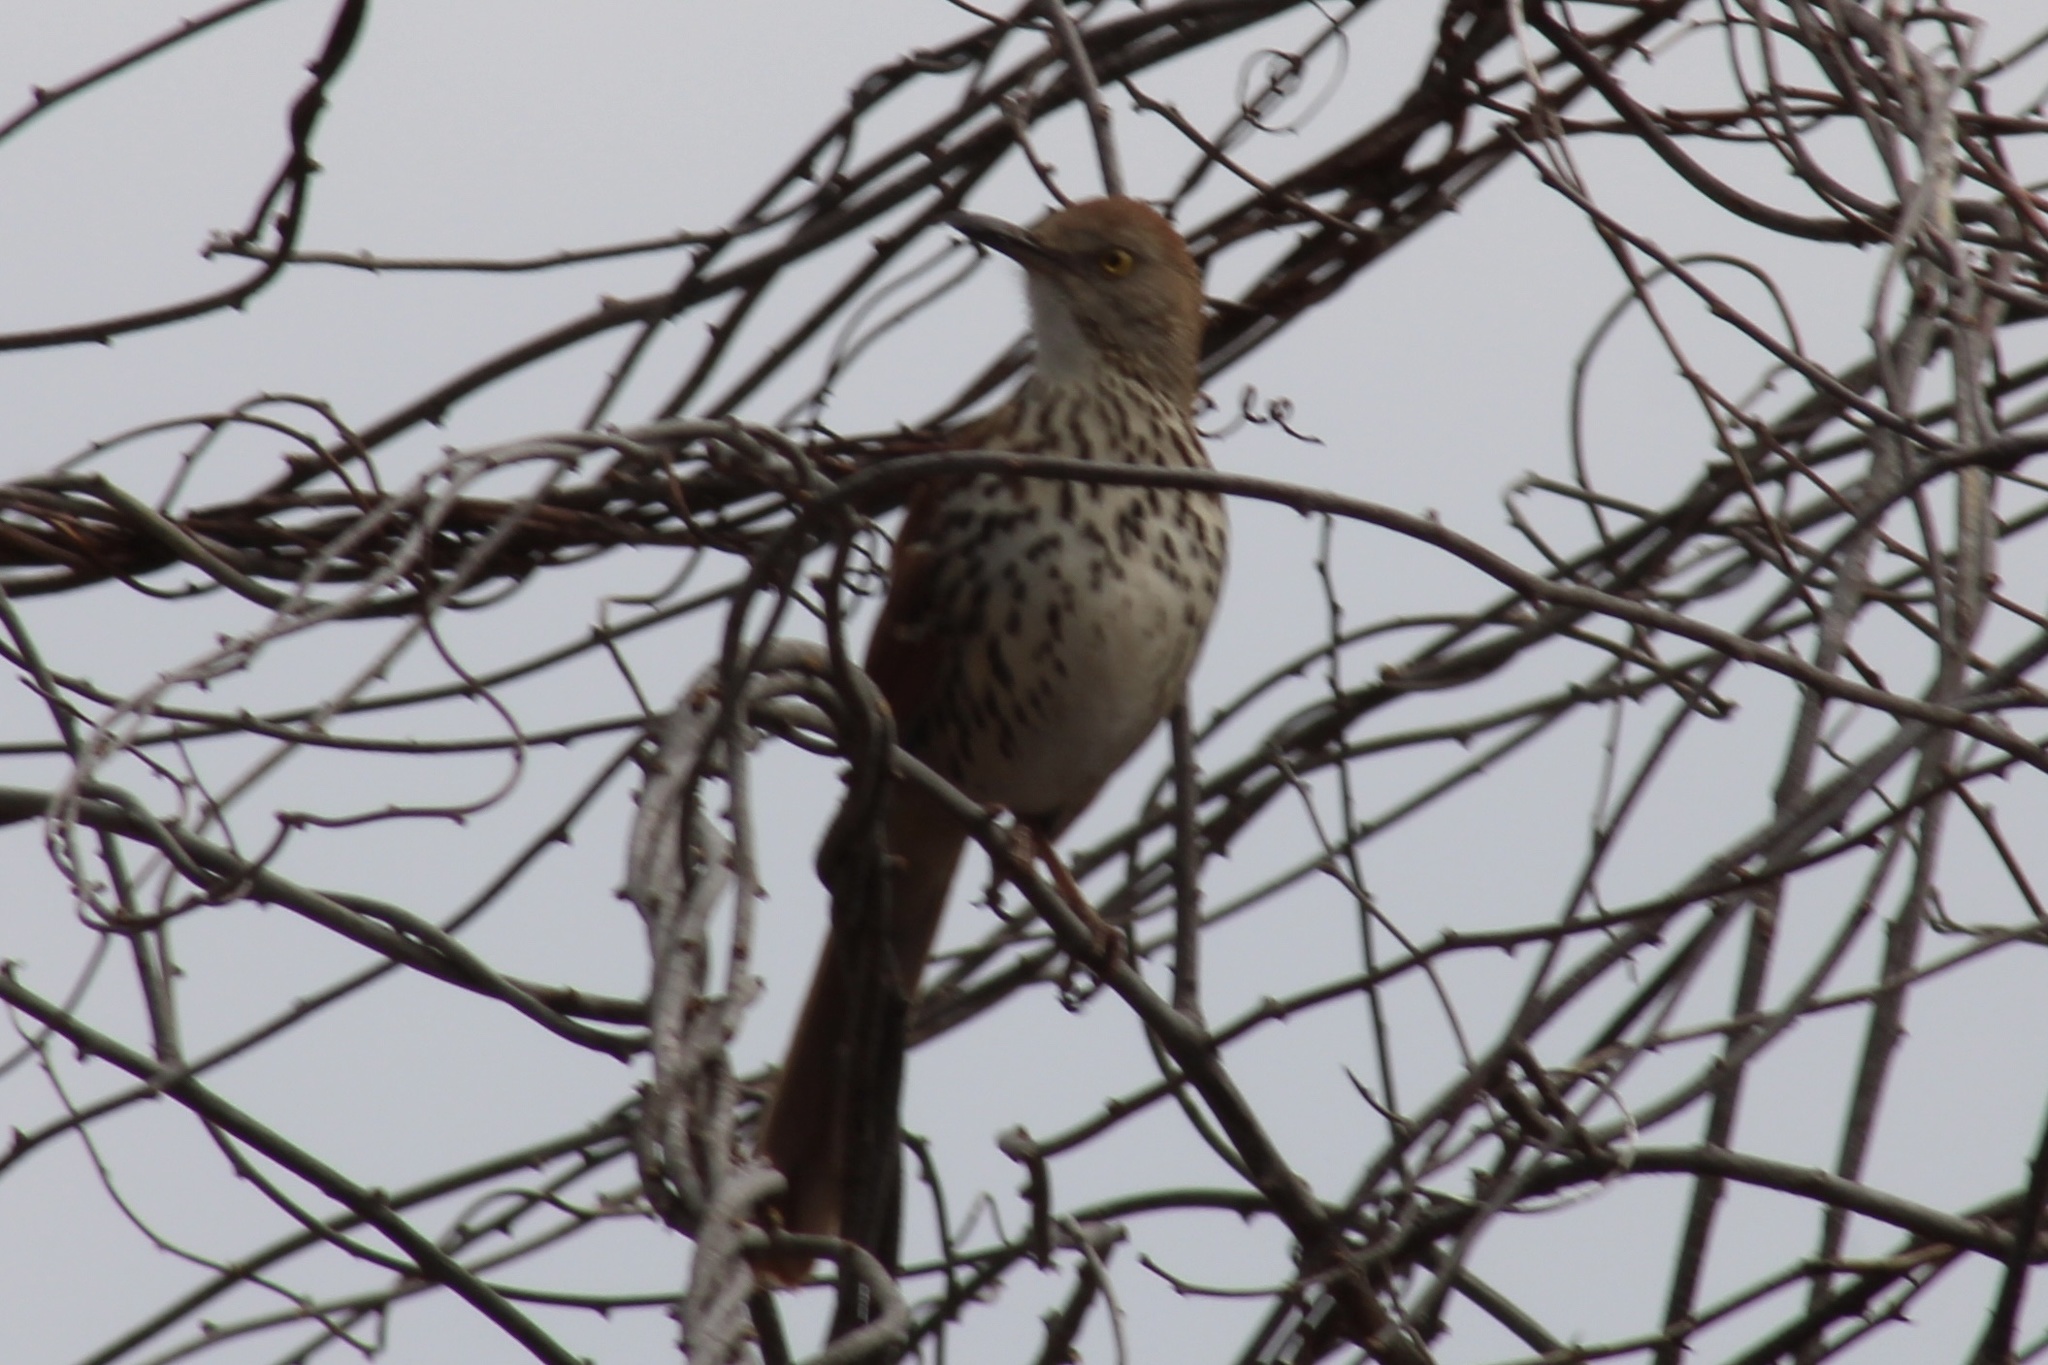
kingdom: Animalia
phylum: Chordata
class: Aves
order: Passeriformes
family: Mimidae
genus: Toxostoma
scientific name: Toxostoma rufum
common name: Brown thrasher
